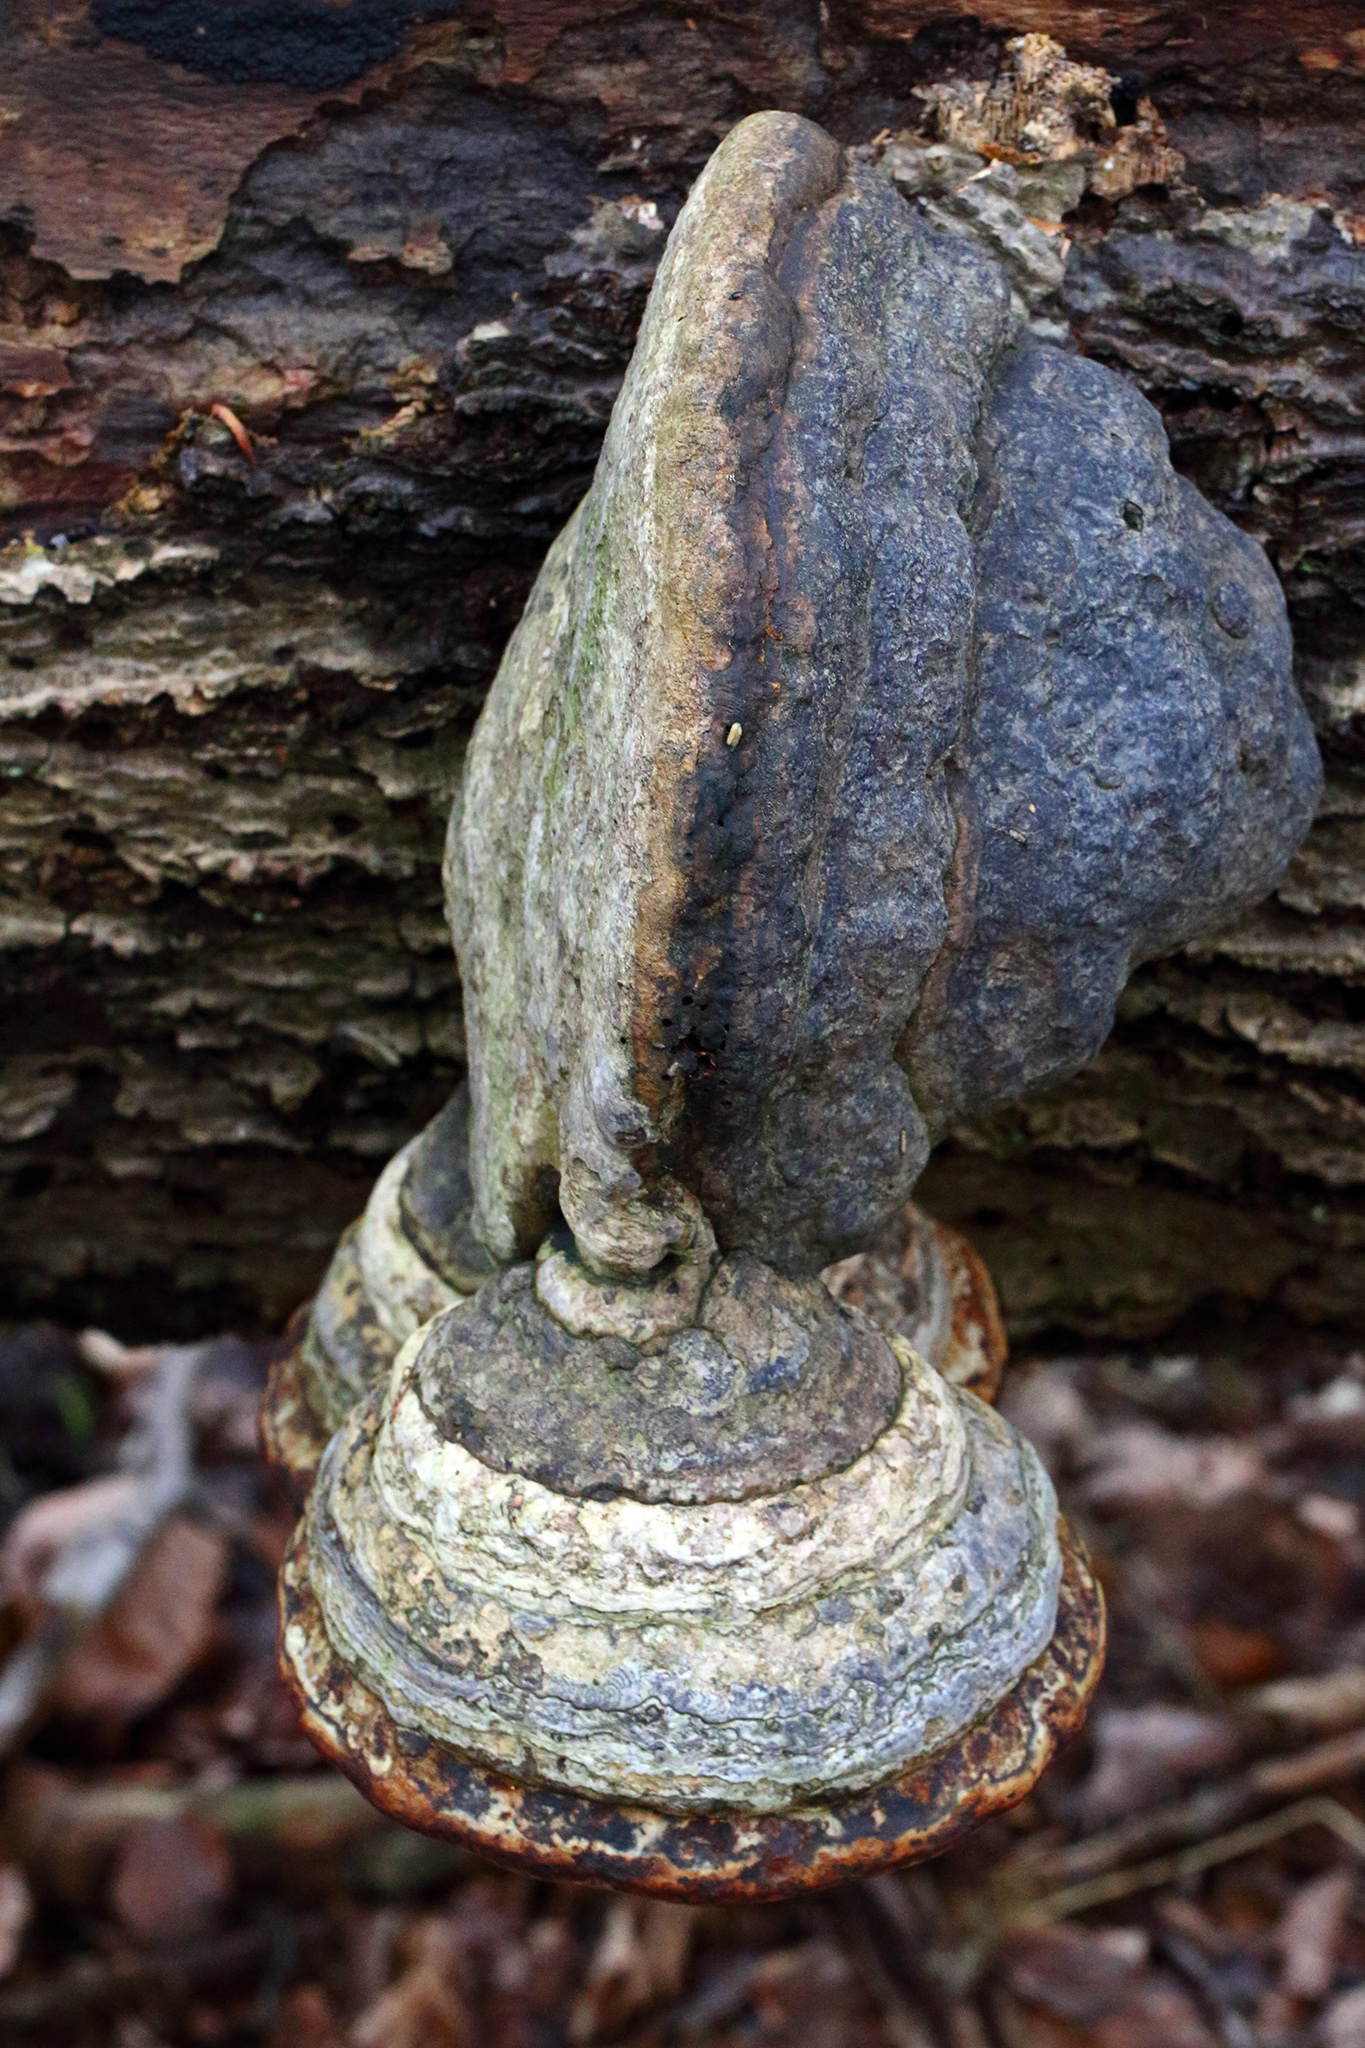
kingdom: Fungi
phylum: Basidiomycota
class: Agaricomycetes
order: Polyporales
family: Polyporaceae
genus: Fomes
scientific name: Fomes fomentarius
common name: Hoof fungus
